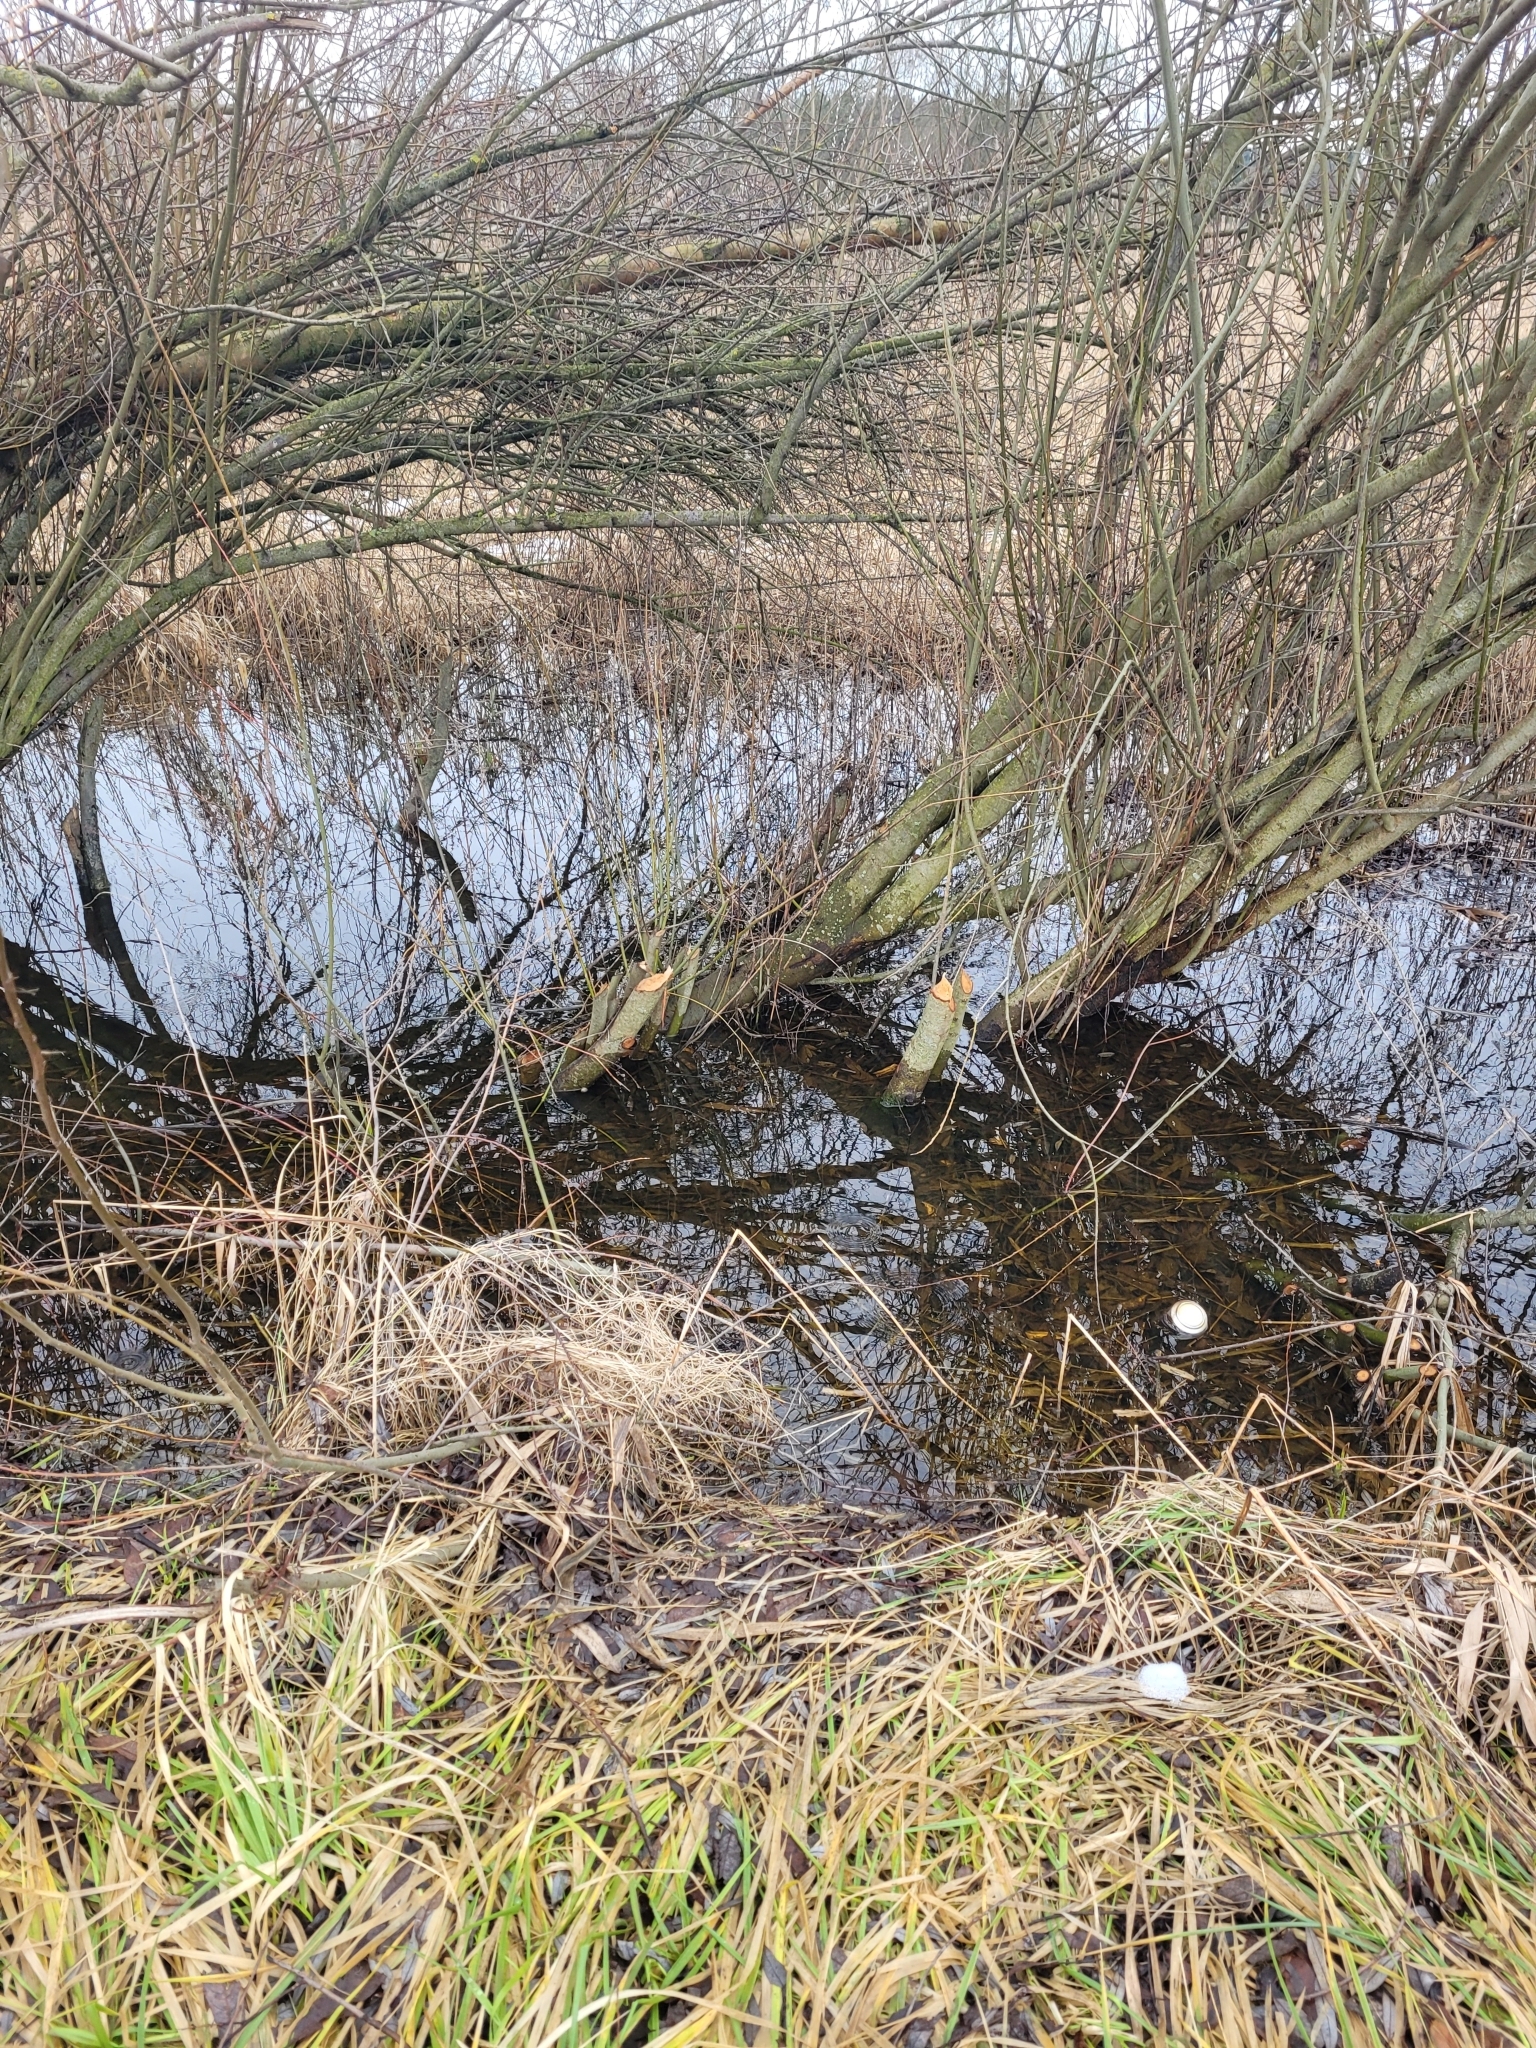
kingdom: Animalia
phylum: Chordata
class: Mammalia
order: Rodentia
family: Castoridae
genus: Castor
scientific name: Castor fiber
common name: Eurasian beaver
